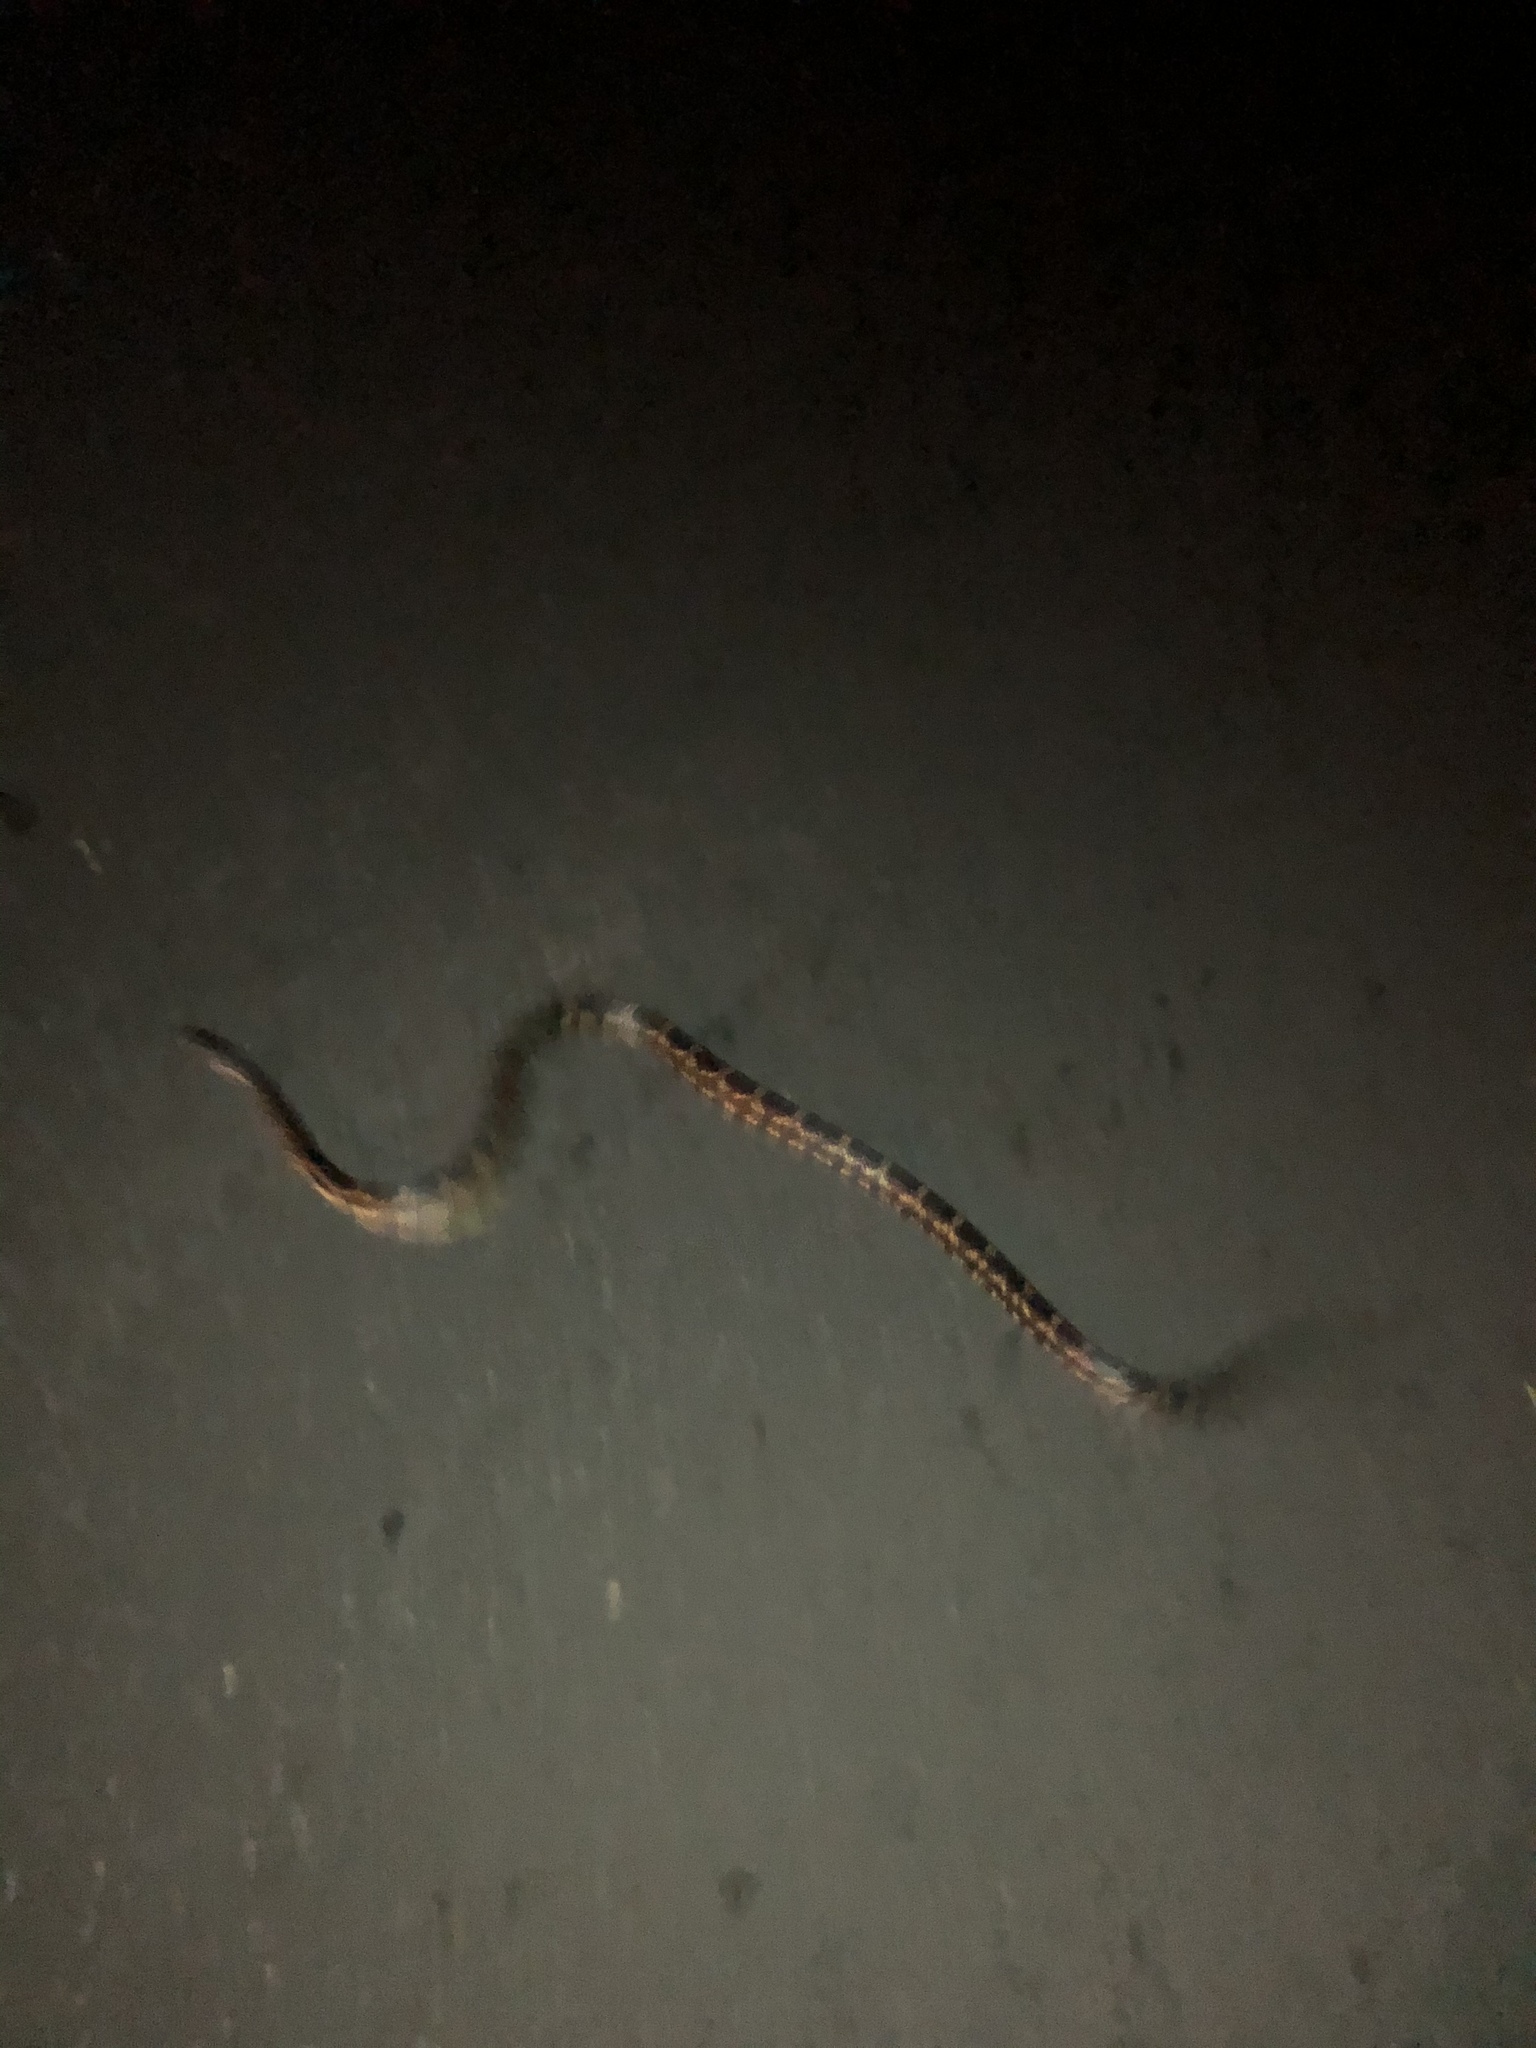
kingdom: Animalia
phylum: Chordata
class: Squamata
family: Colubridae
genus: Pantherophis
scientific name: Pantherophis obsoletus
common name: Black rat snake
